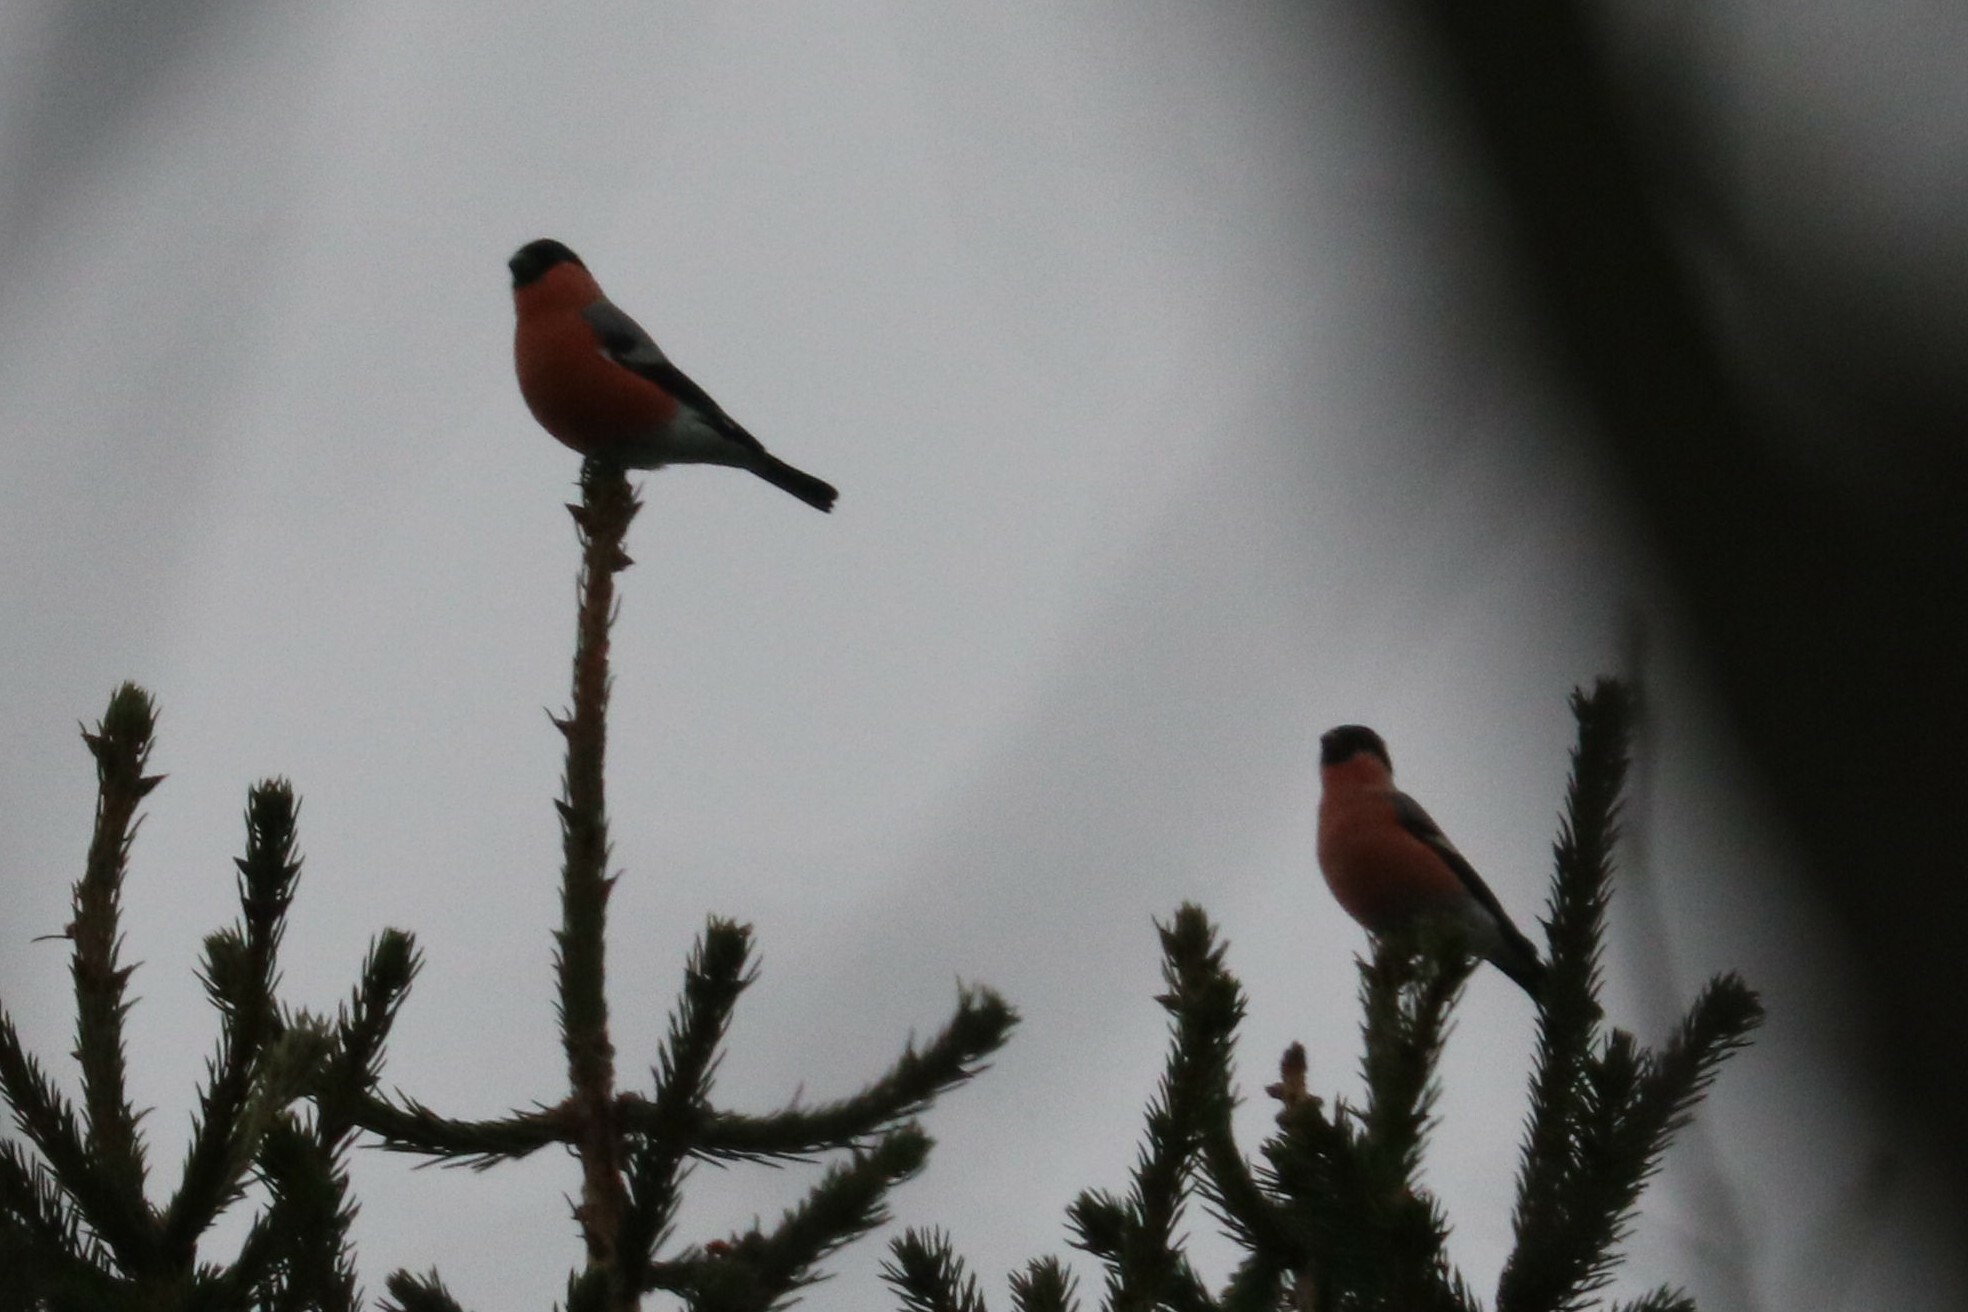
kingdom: Animalia
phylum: Chordata
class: Aves
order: Passeriformes
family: Fringillidae
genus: Pyrrhula
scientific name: Pyrrhula pyrrhula
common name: Eurasian bullfinch
